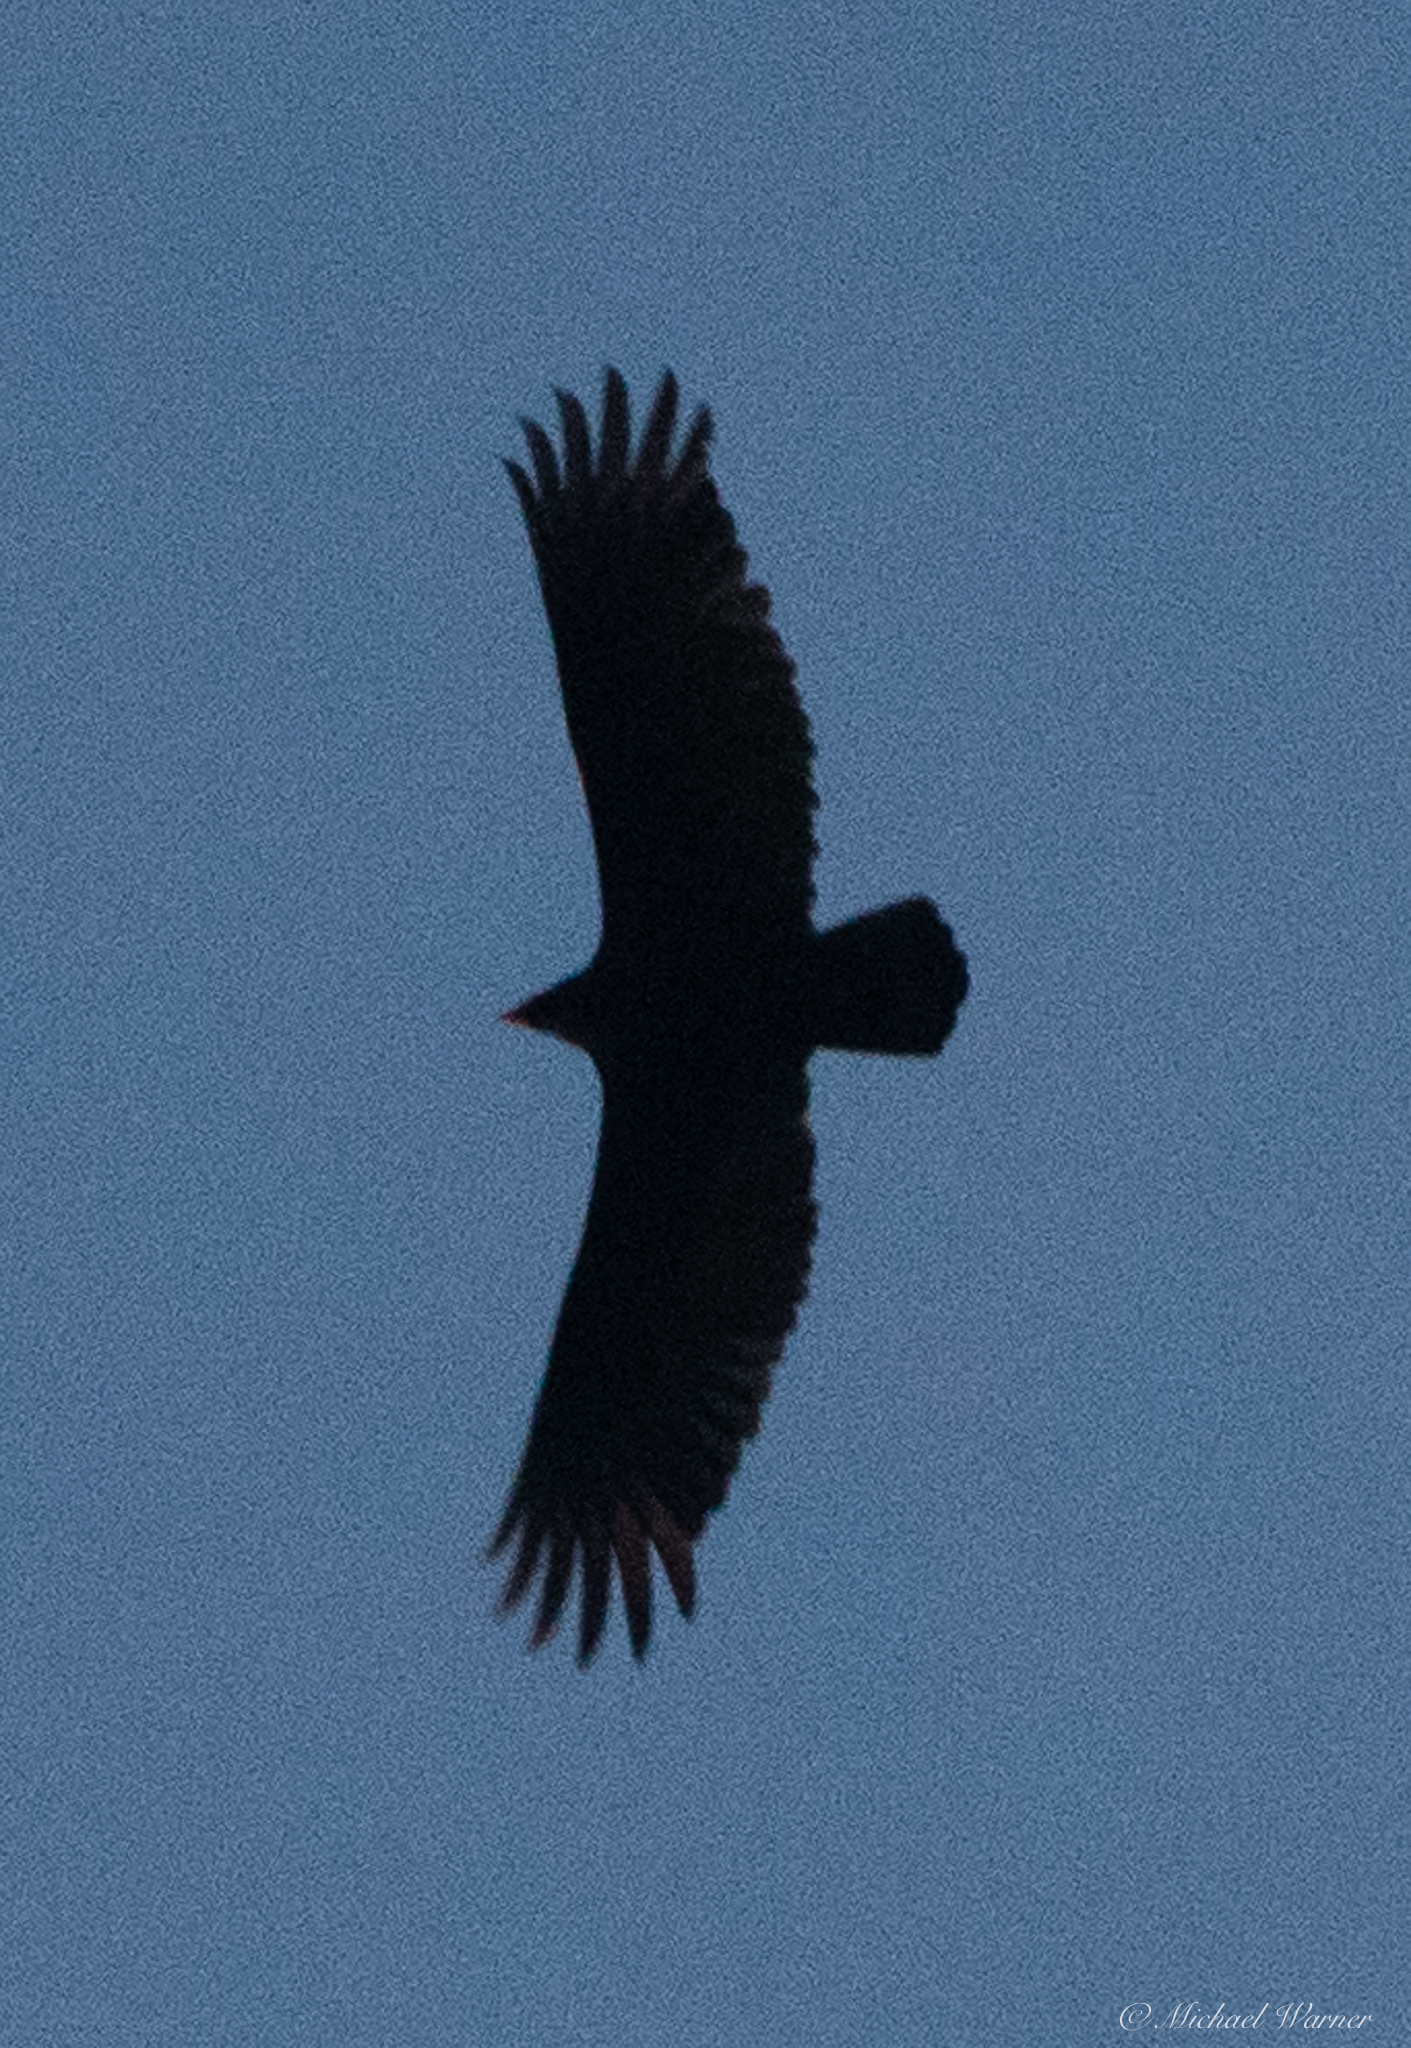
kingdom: Animalia
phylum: Chordata
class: Aves
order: Accipitriformes
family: Cathartidae
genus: Cathartes
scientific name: Cathartes aura
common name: Turkey vulture
